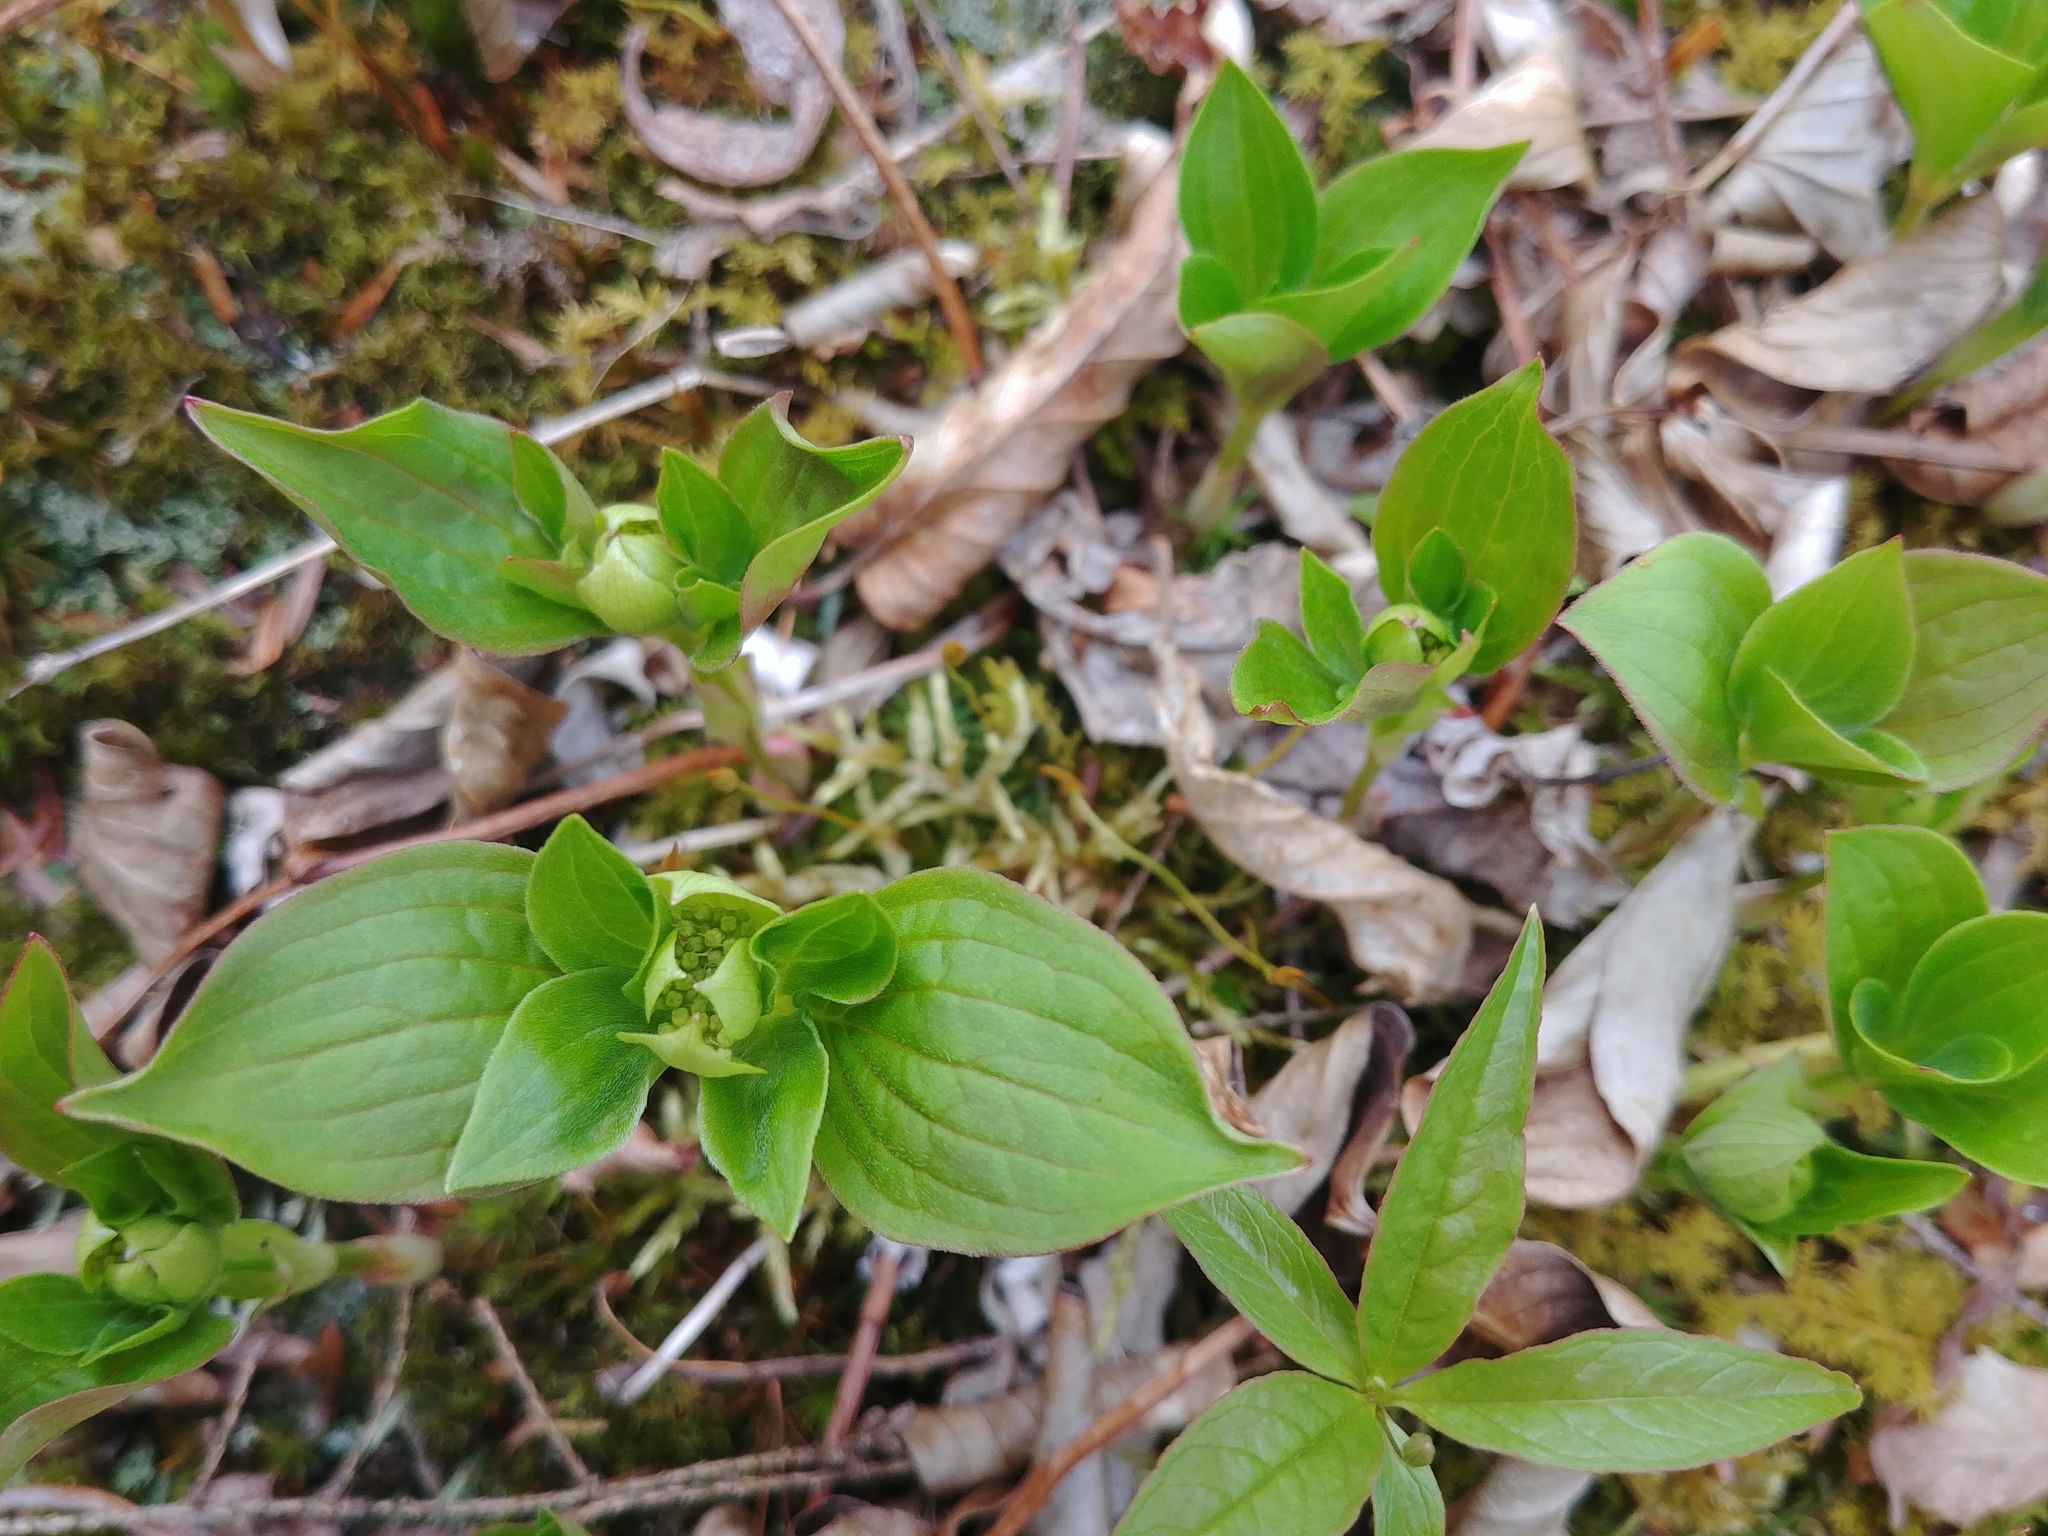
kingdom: Plantae
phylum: Tracheophyta
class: Magnoliopsida
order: Cornales
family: Cornaceae
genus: Cornus
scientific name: Cornus canadensis
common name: Creeping dogwood
